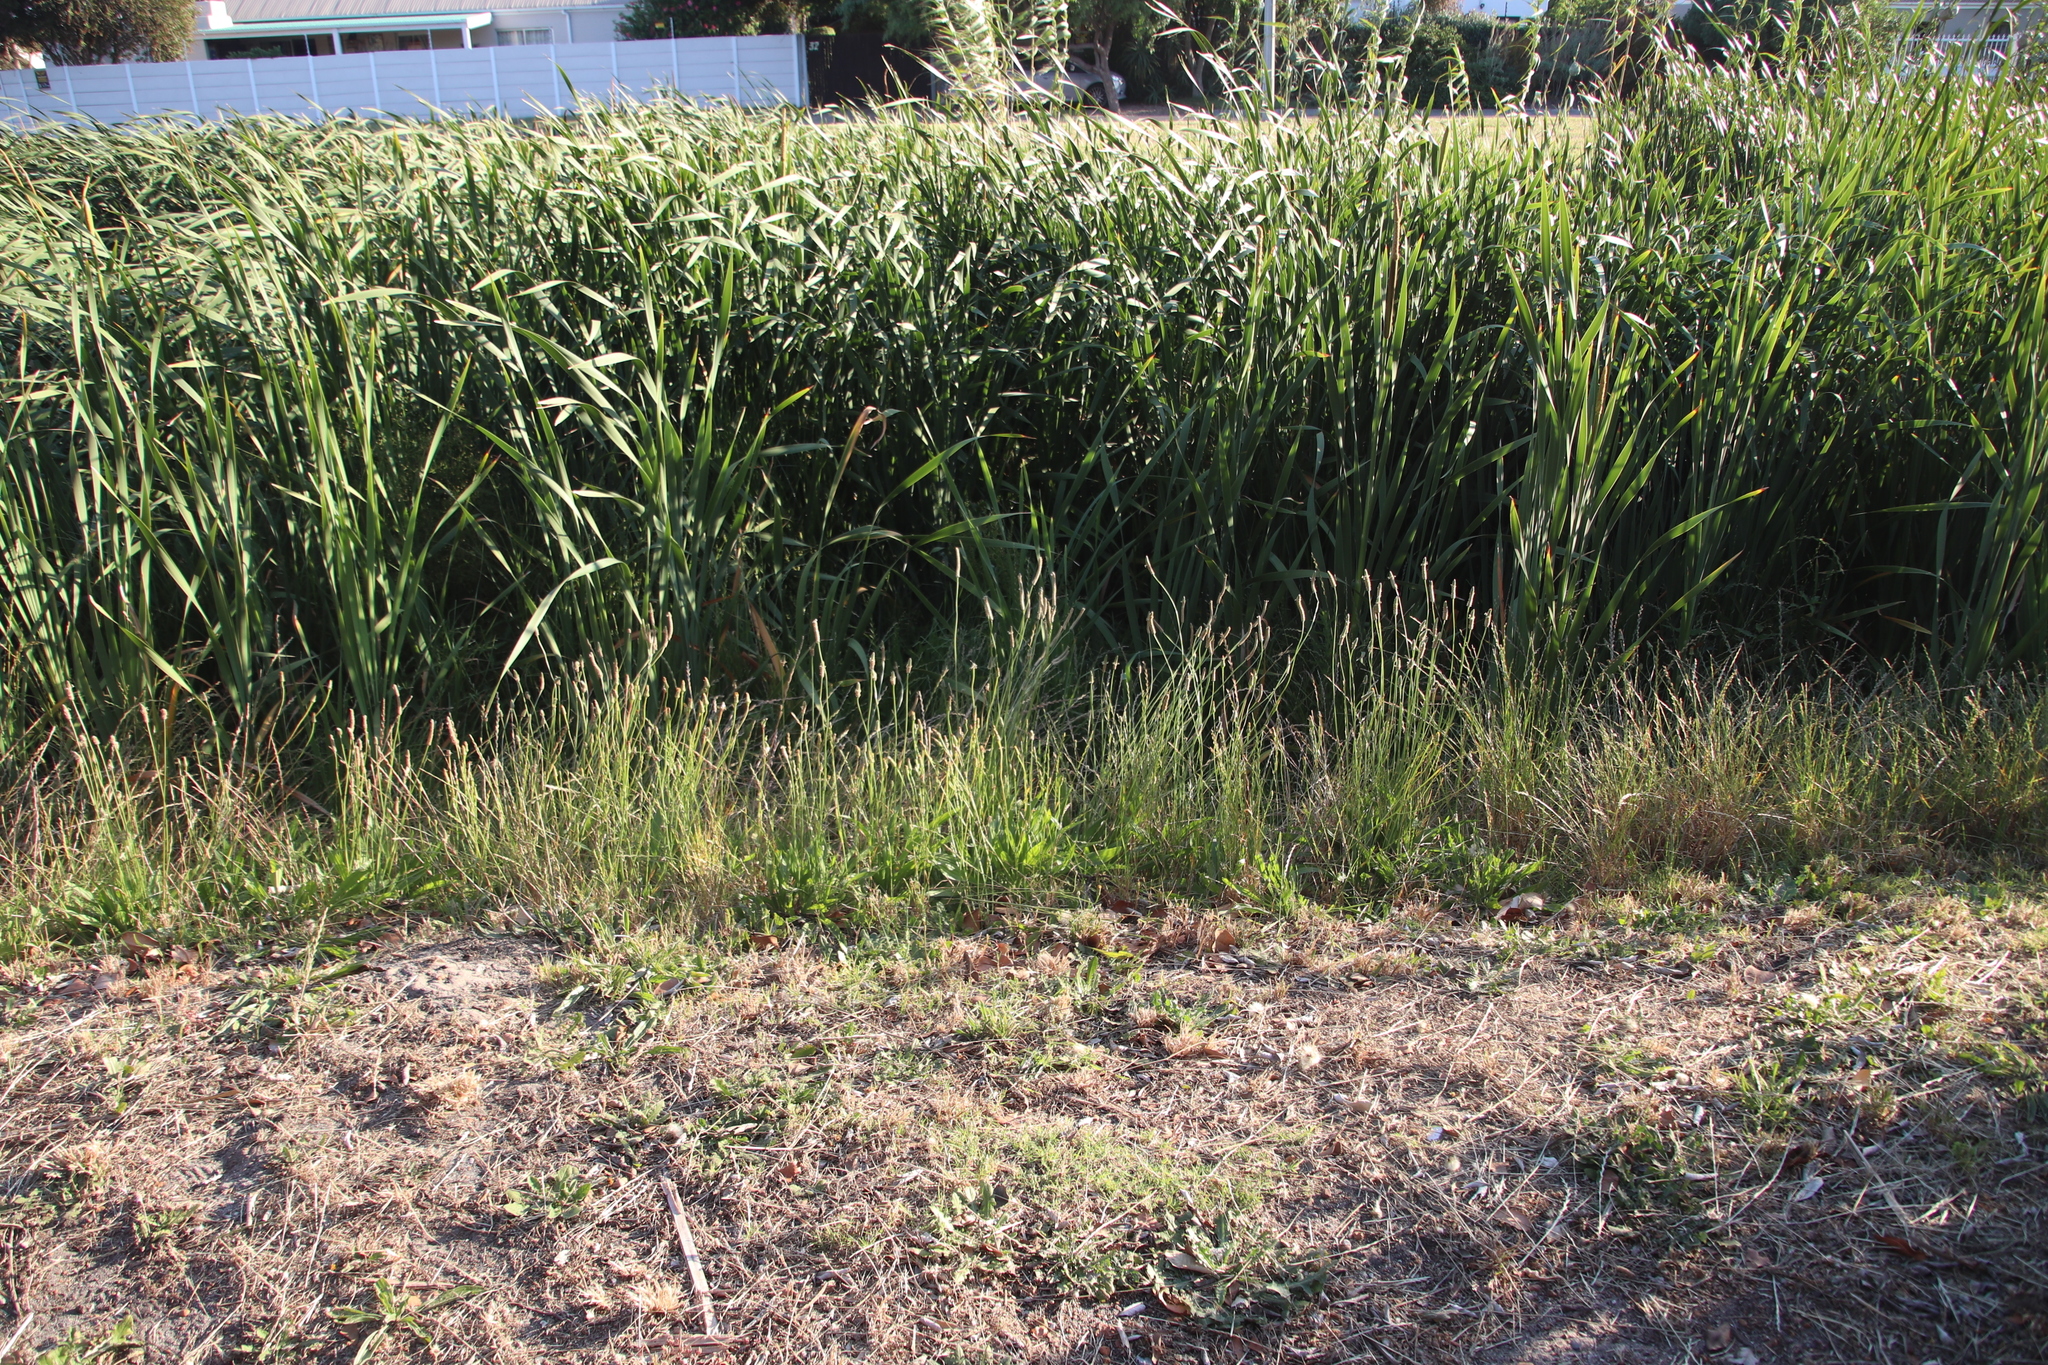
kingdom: Plantae
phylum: Tracheophyta
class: Magnoliopsida
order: Asterales
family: Asteraceae
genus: Hypochaeris
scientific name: Hypochaeris radicata
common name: Flatweed
